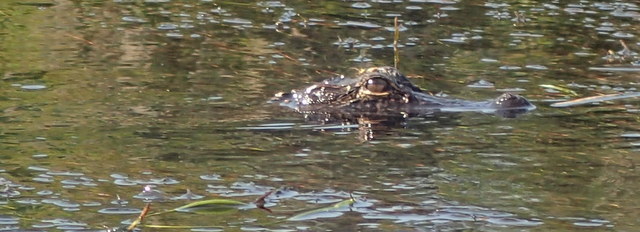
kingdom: Animalia
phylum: Chordata
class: Crocodylia
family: Alligatoridae
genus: Alligator
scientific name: Alligator mississippiensis
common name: American alligator
